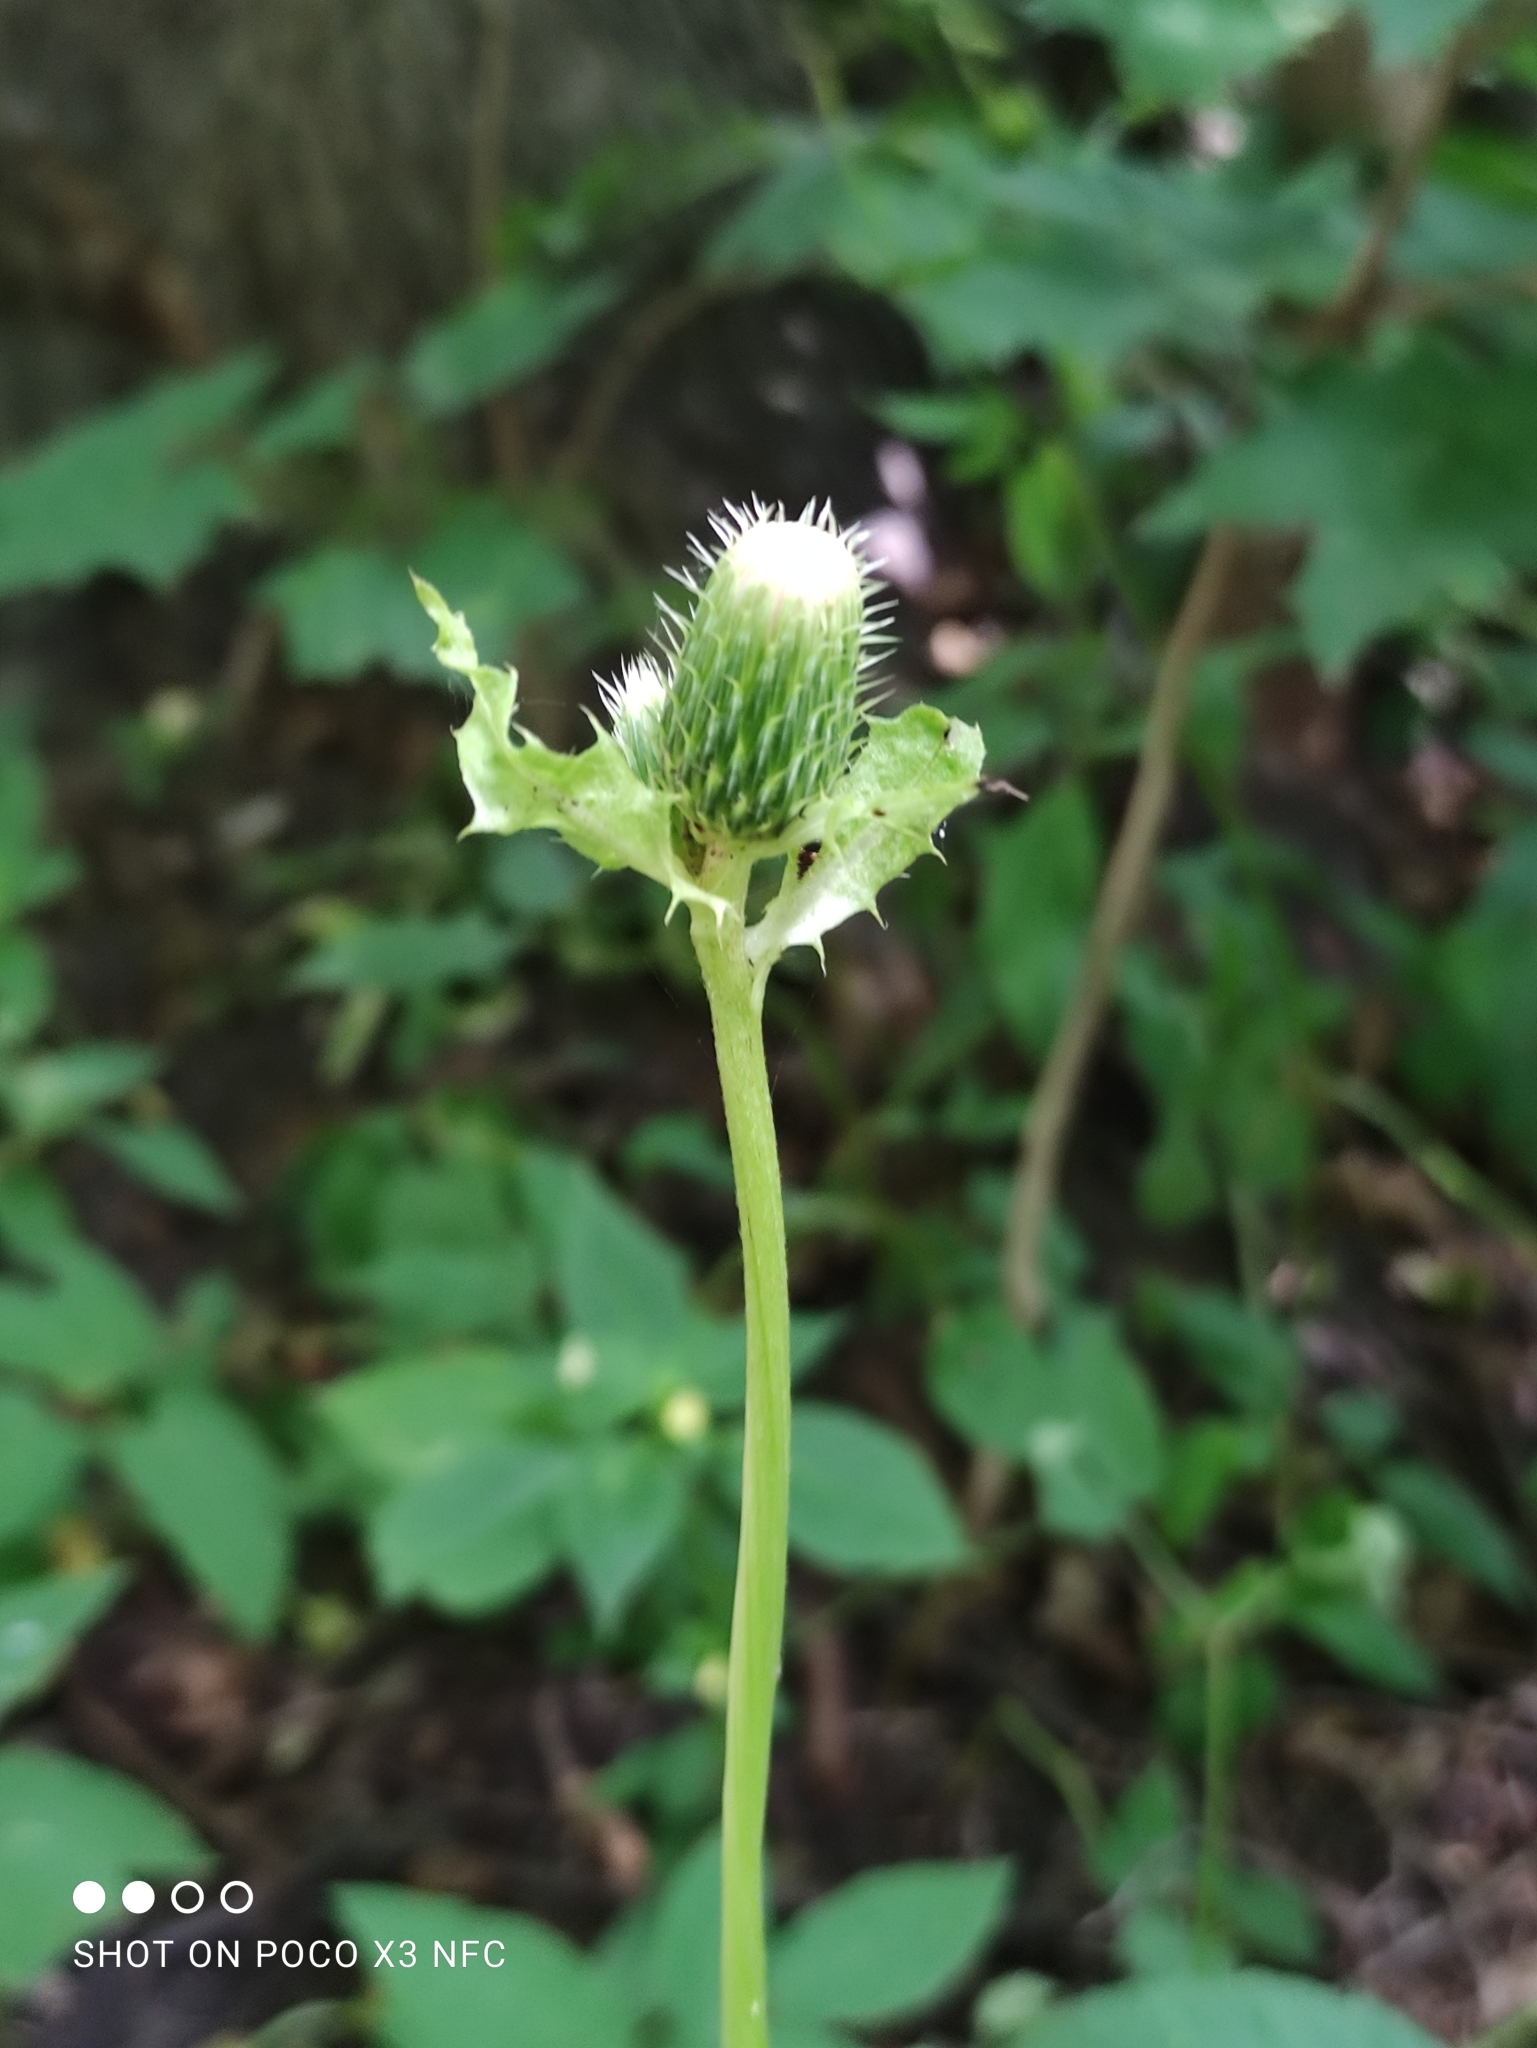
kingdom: Plantae
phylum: Tracheophyta
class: Magnoliopsida
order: Asterales
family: Asteraceae
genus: Cirsium
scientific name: Cirsium oleraceum
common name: Cabbage thistle
